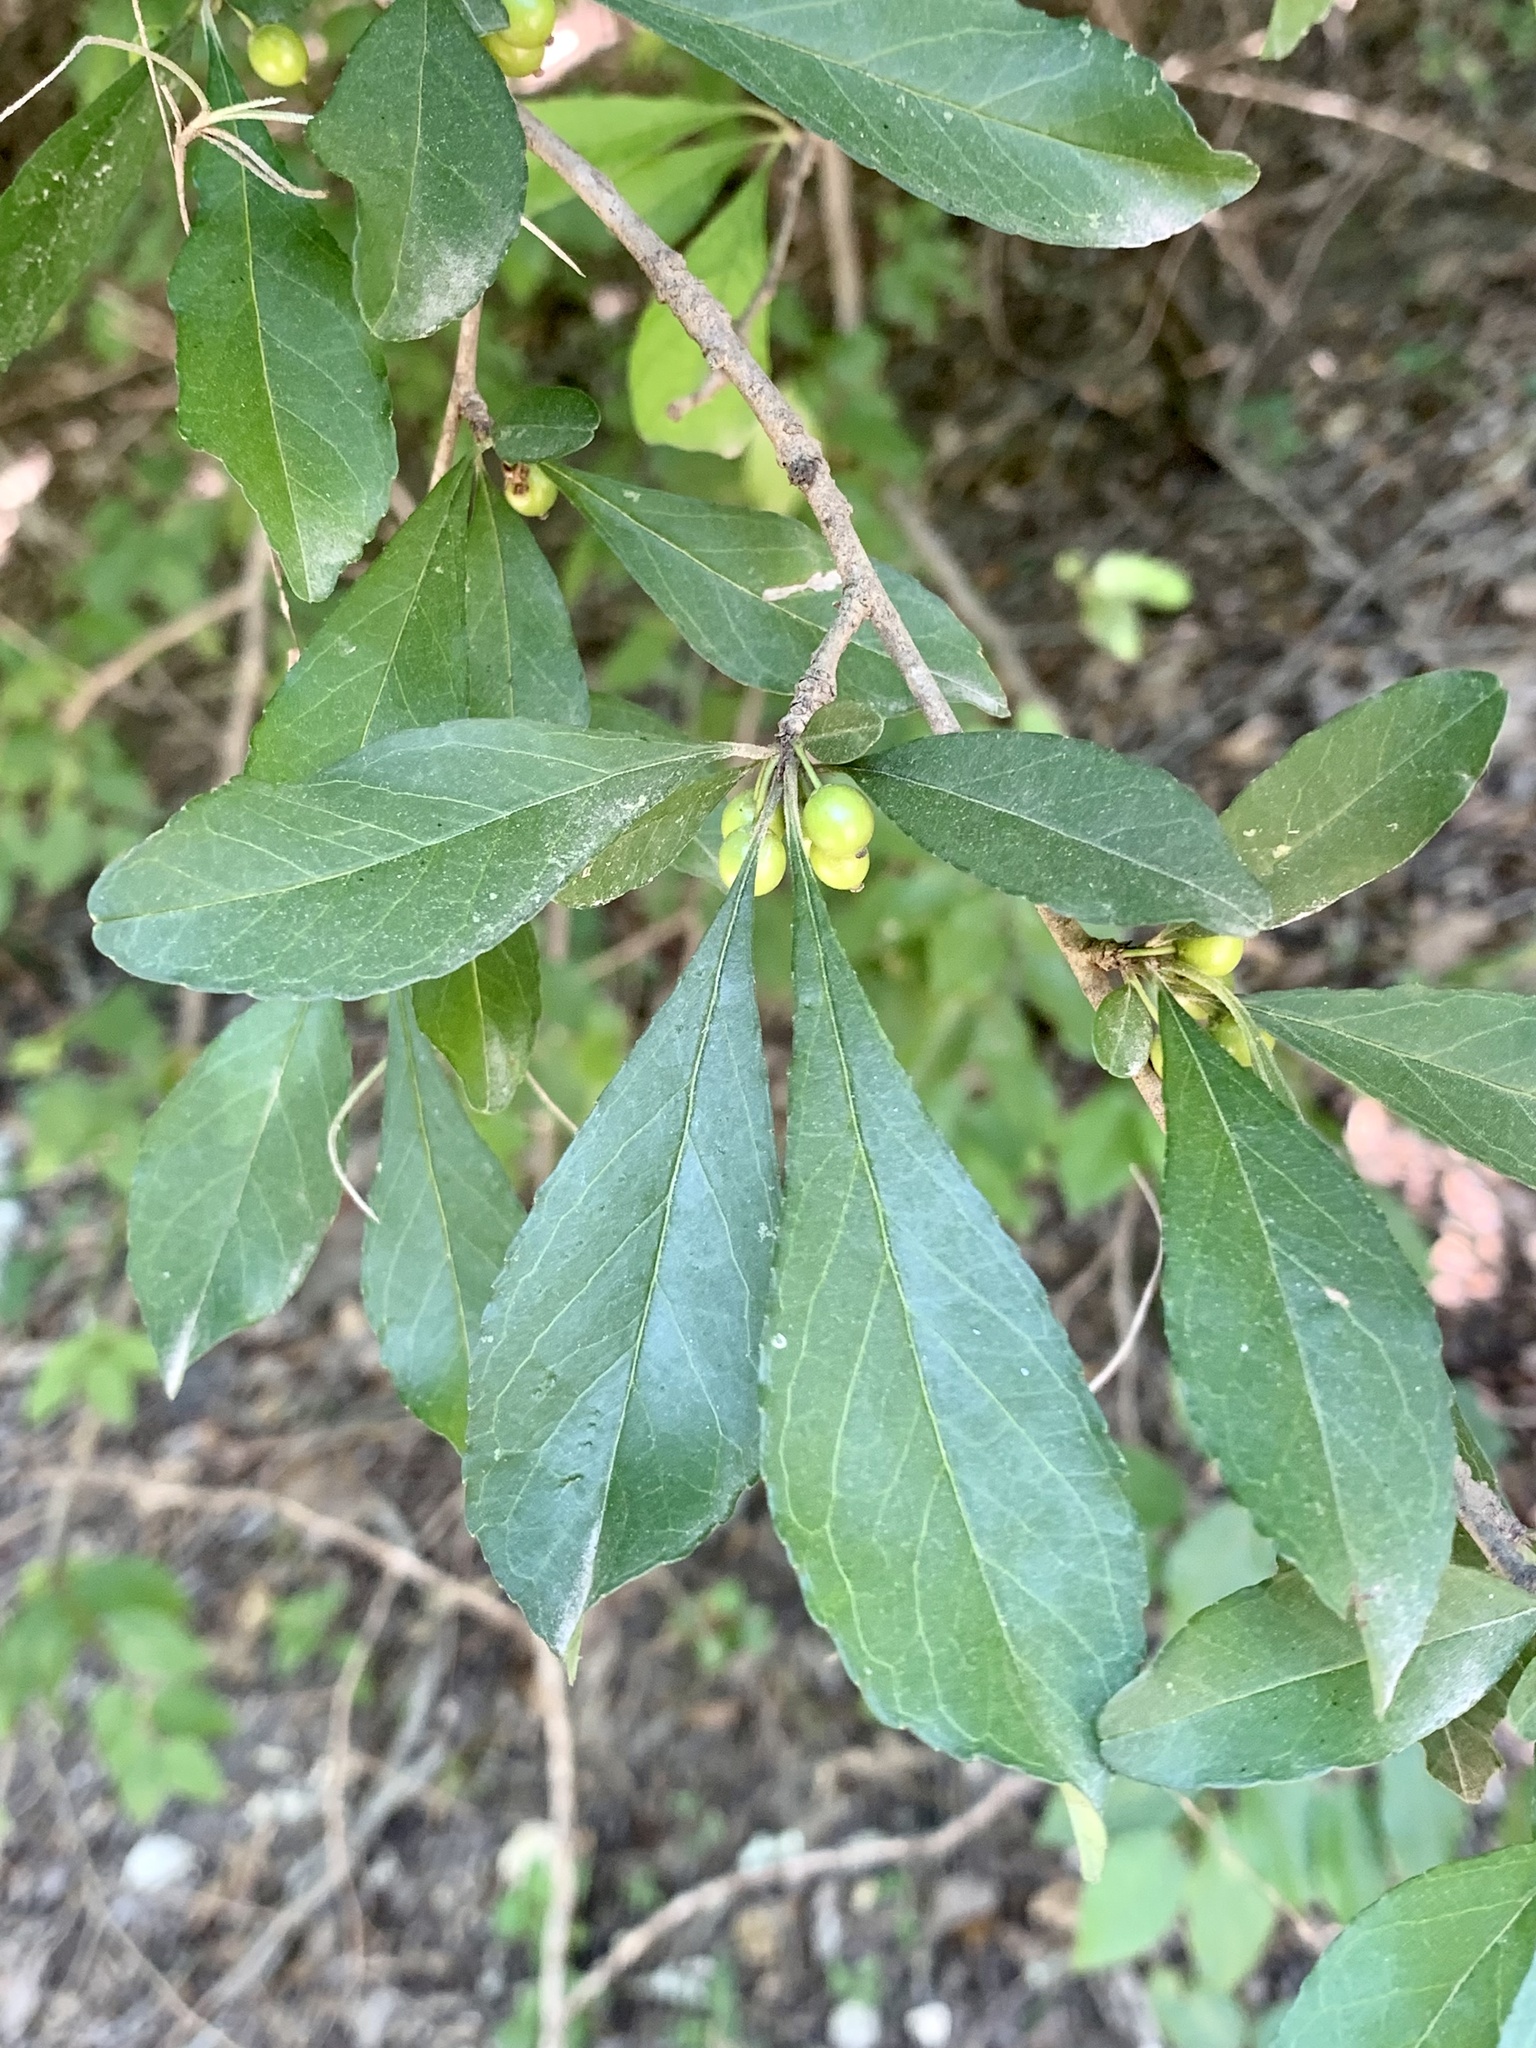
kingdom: Plantae
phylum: Tracheophyta
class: Magnoliopsida
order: Aquifoliales
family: Aquifoliaceae
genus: Ilex
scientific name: Ilex decidua
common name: Possum-haw
